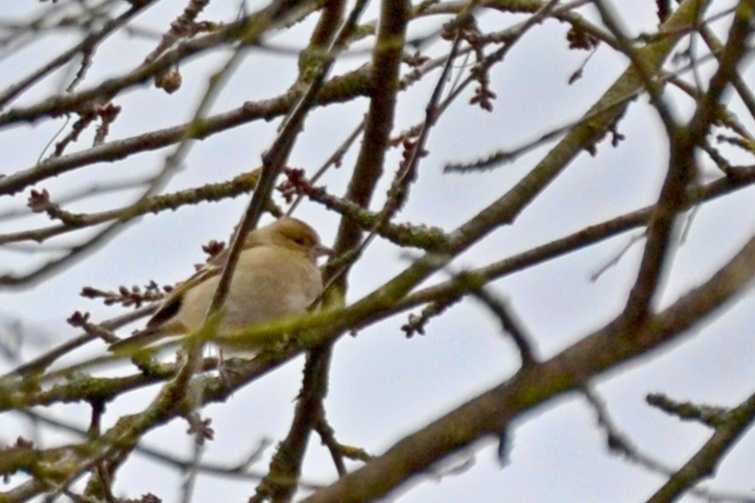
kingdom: Animalia
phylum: Chordata
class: Aves
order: Passeriformes
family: Fringillidae
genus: Fringilla
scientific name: Fringilla coelebs
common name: Common chaffinch
